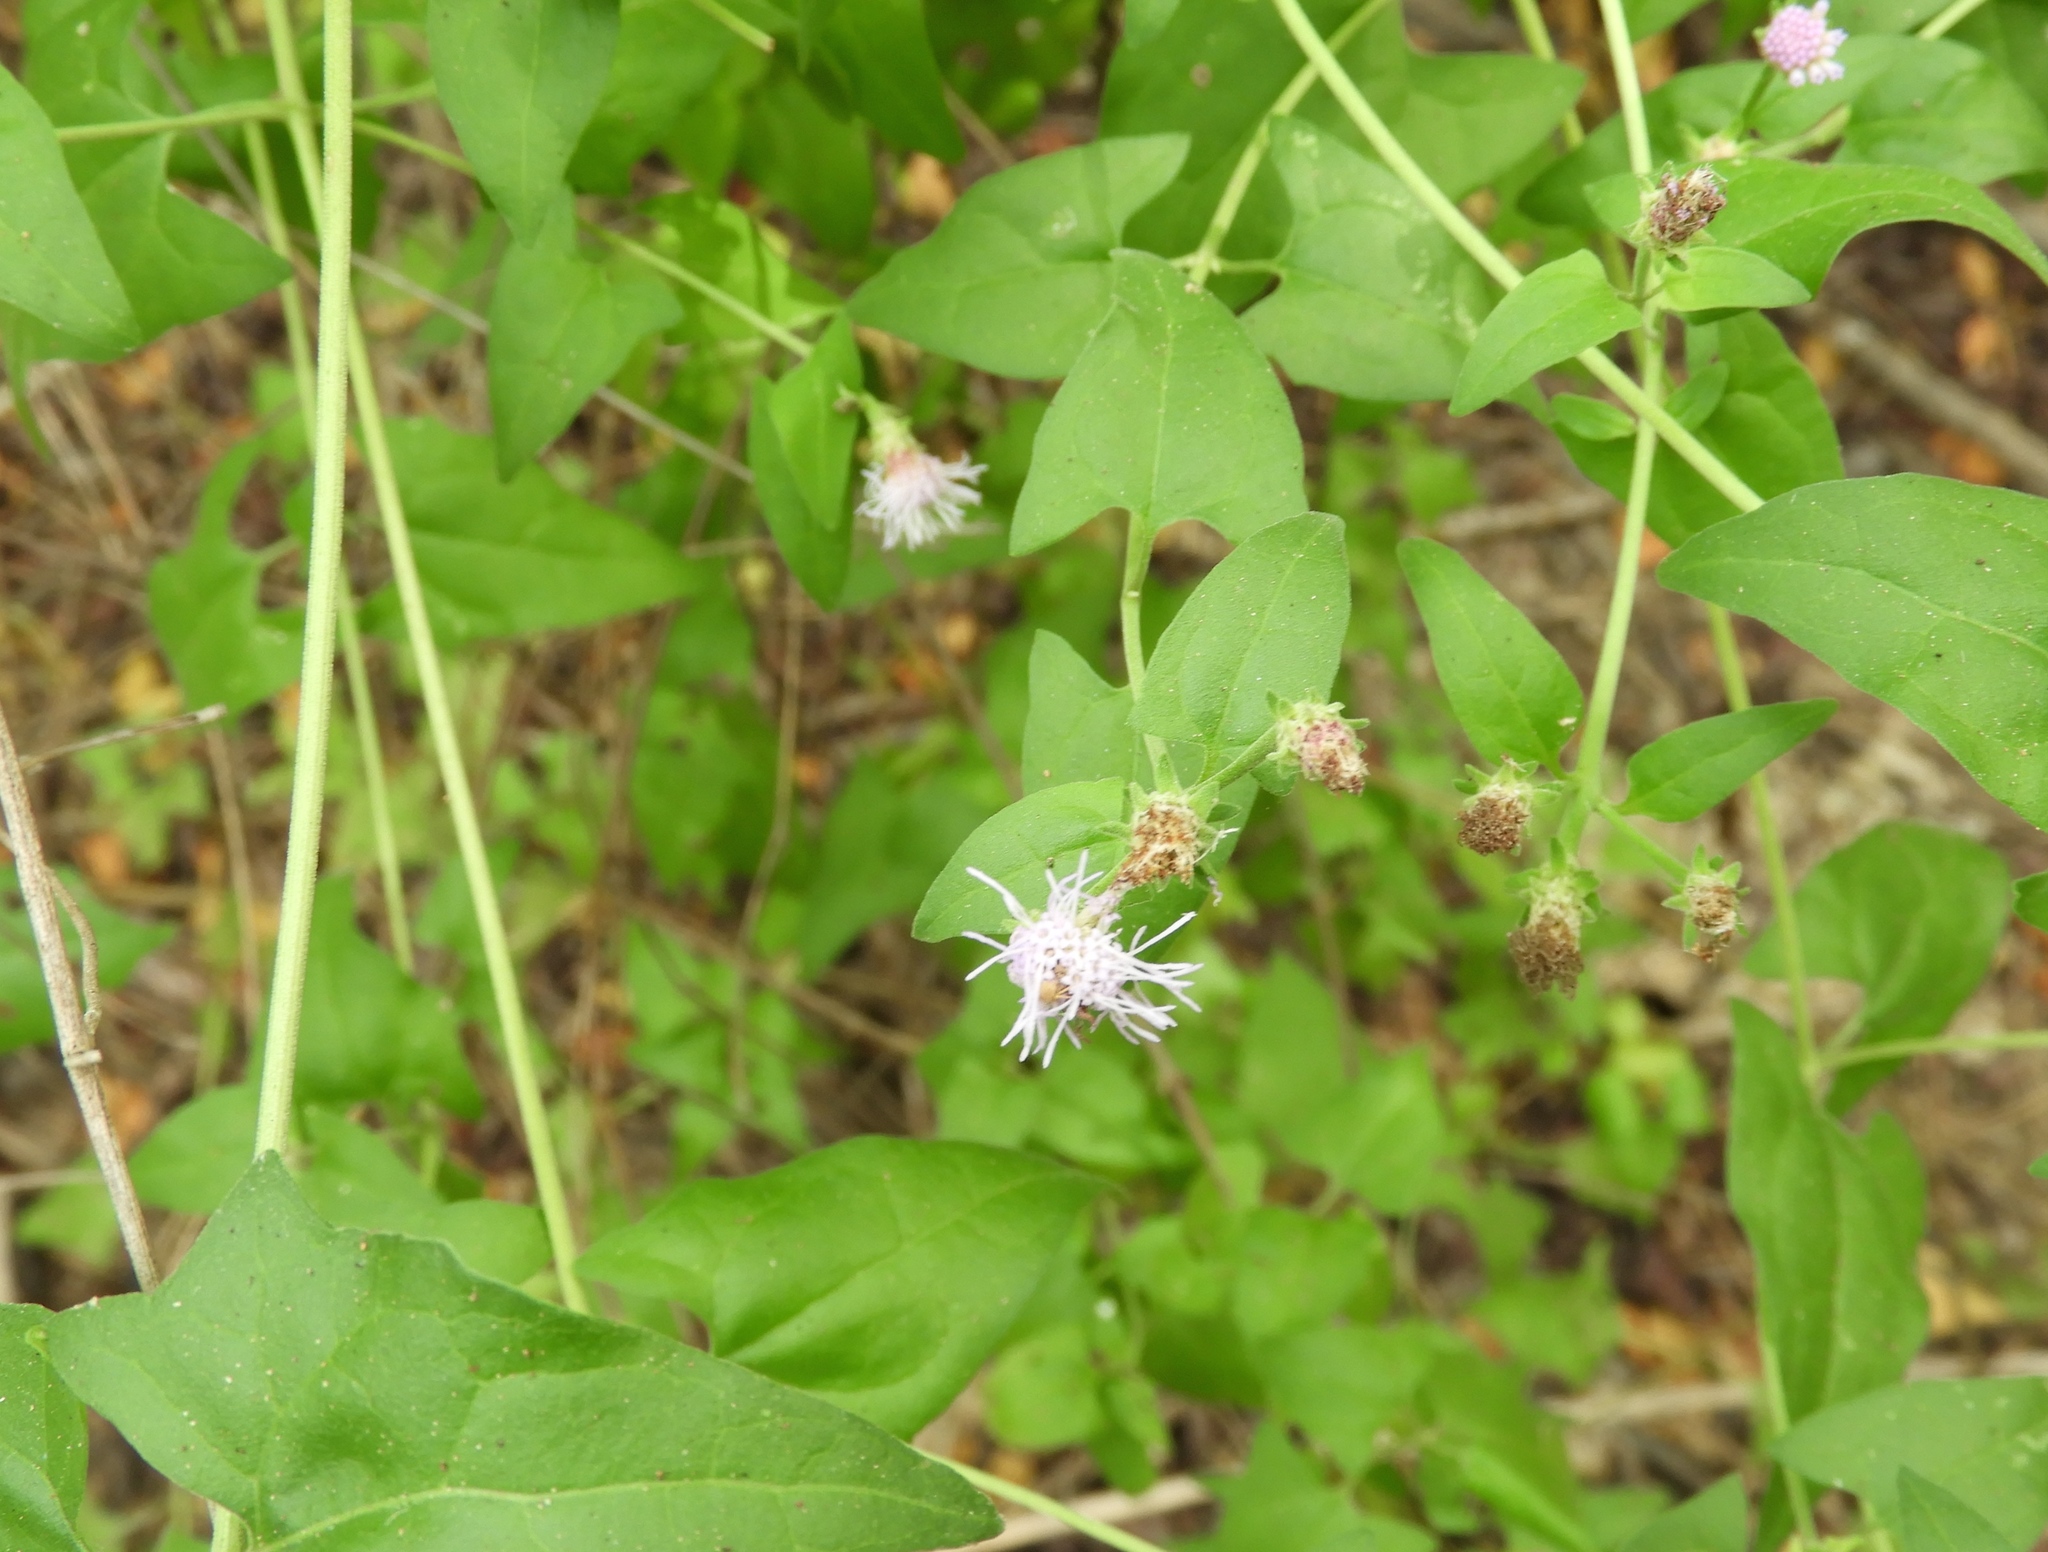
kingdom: Plantae
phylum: Tracheophyta
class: Magnoliopsida
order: Asterales
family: Asteraceae
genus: Chromolaena
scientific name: Chromolaena sagittata
